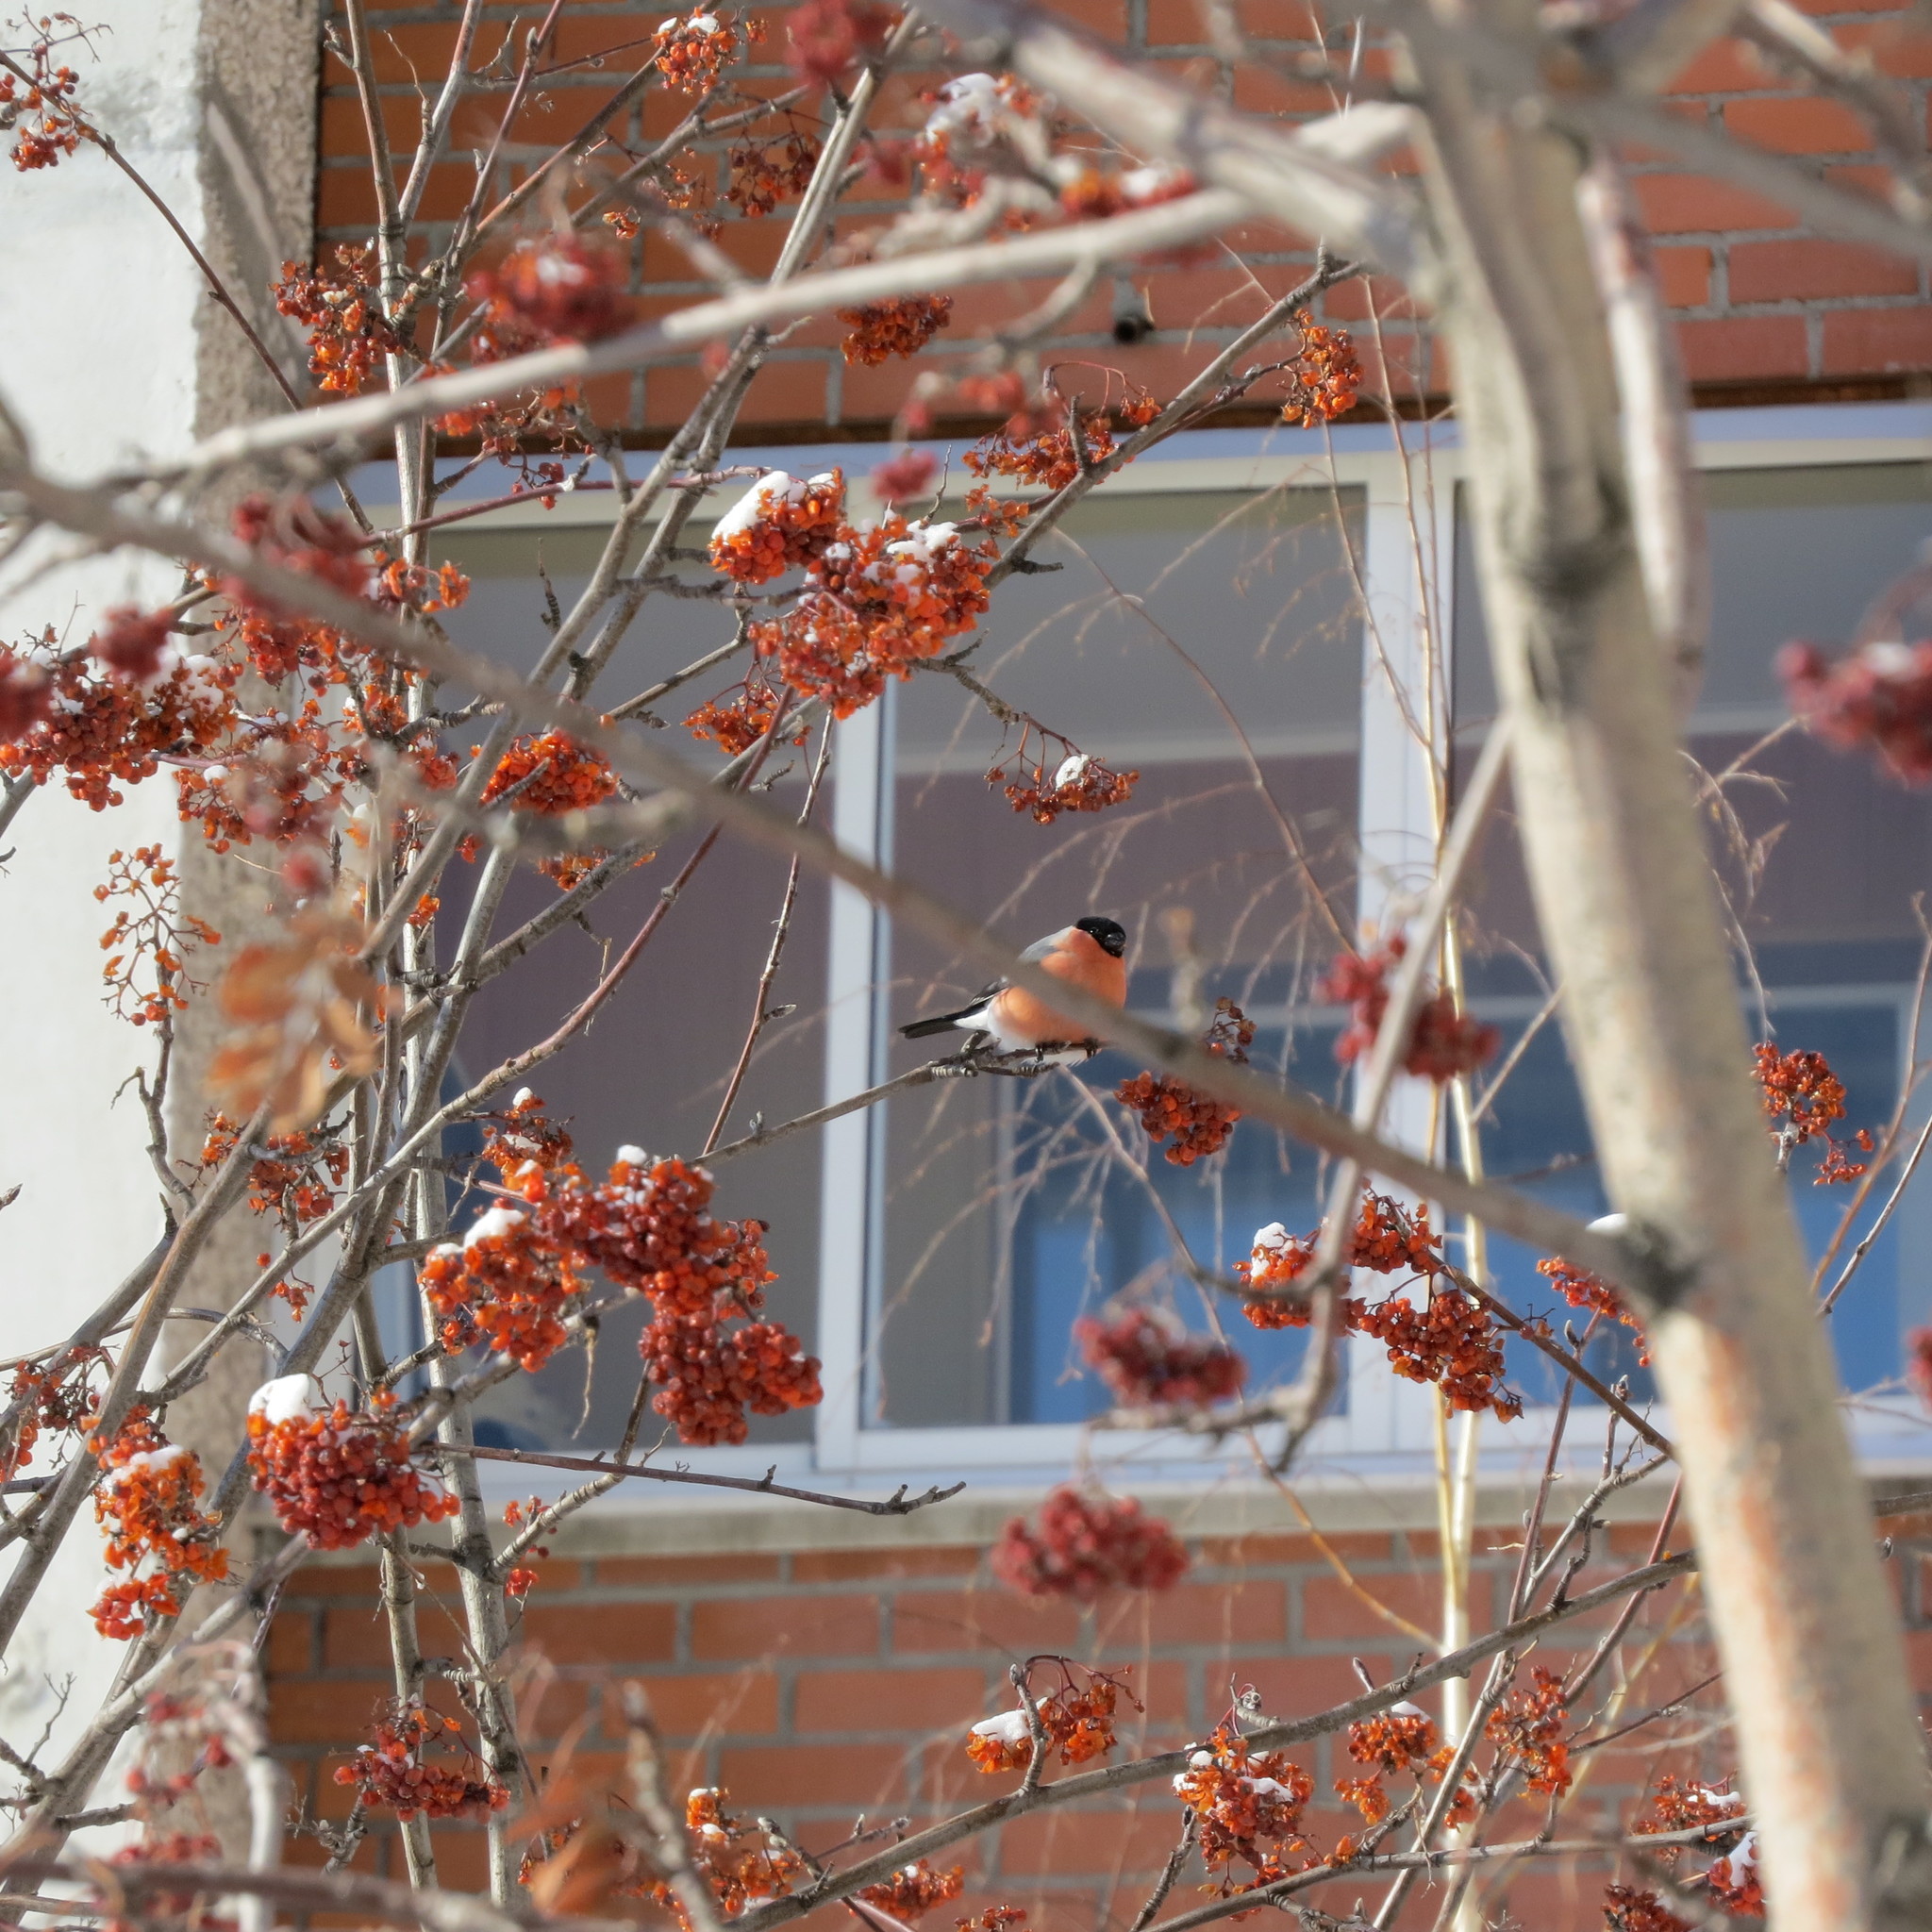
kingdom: Animalia
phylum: Chordata
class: Aves
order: Passeriformes
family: Fringillidae
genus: Pyrrhula
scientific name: Pyrrhula pyrrhula
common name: Eurasian bullfinch
